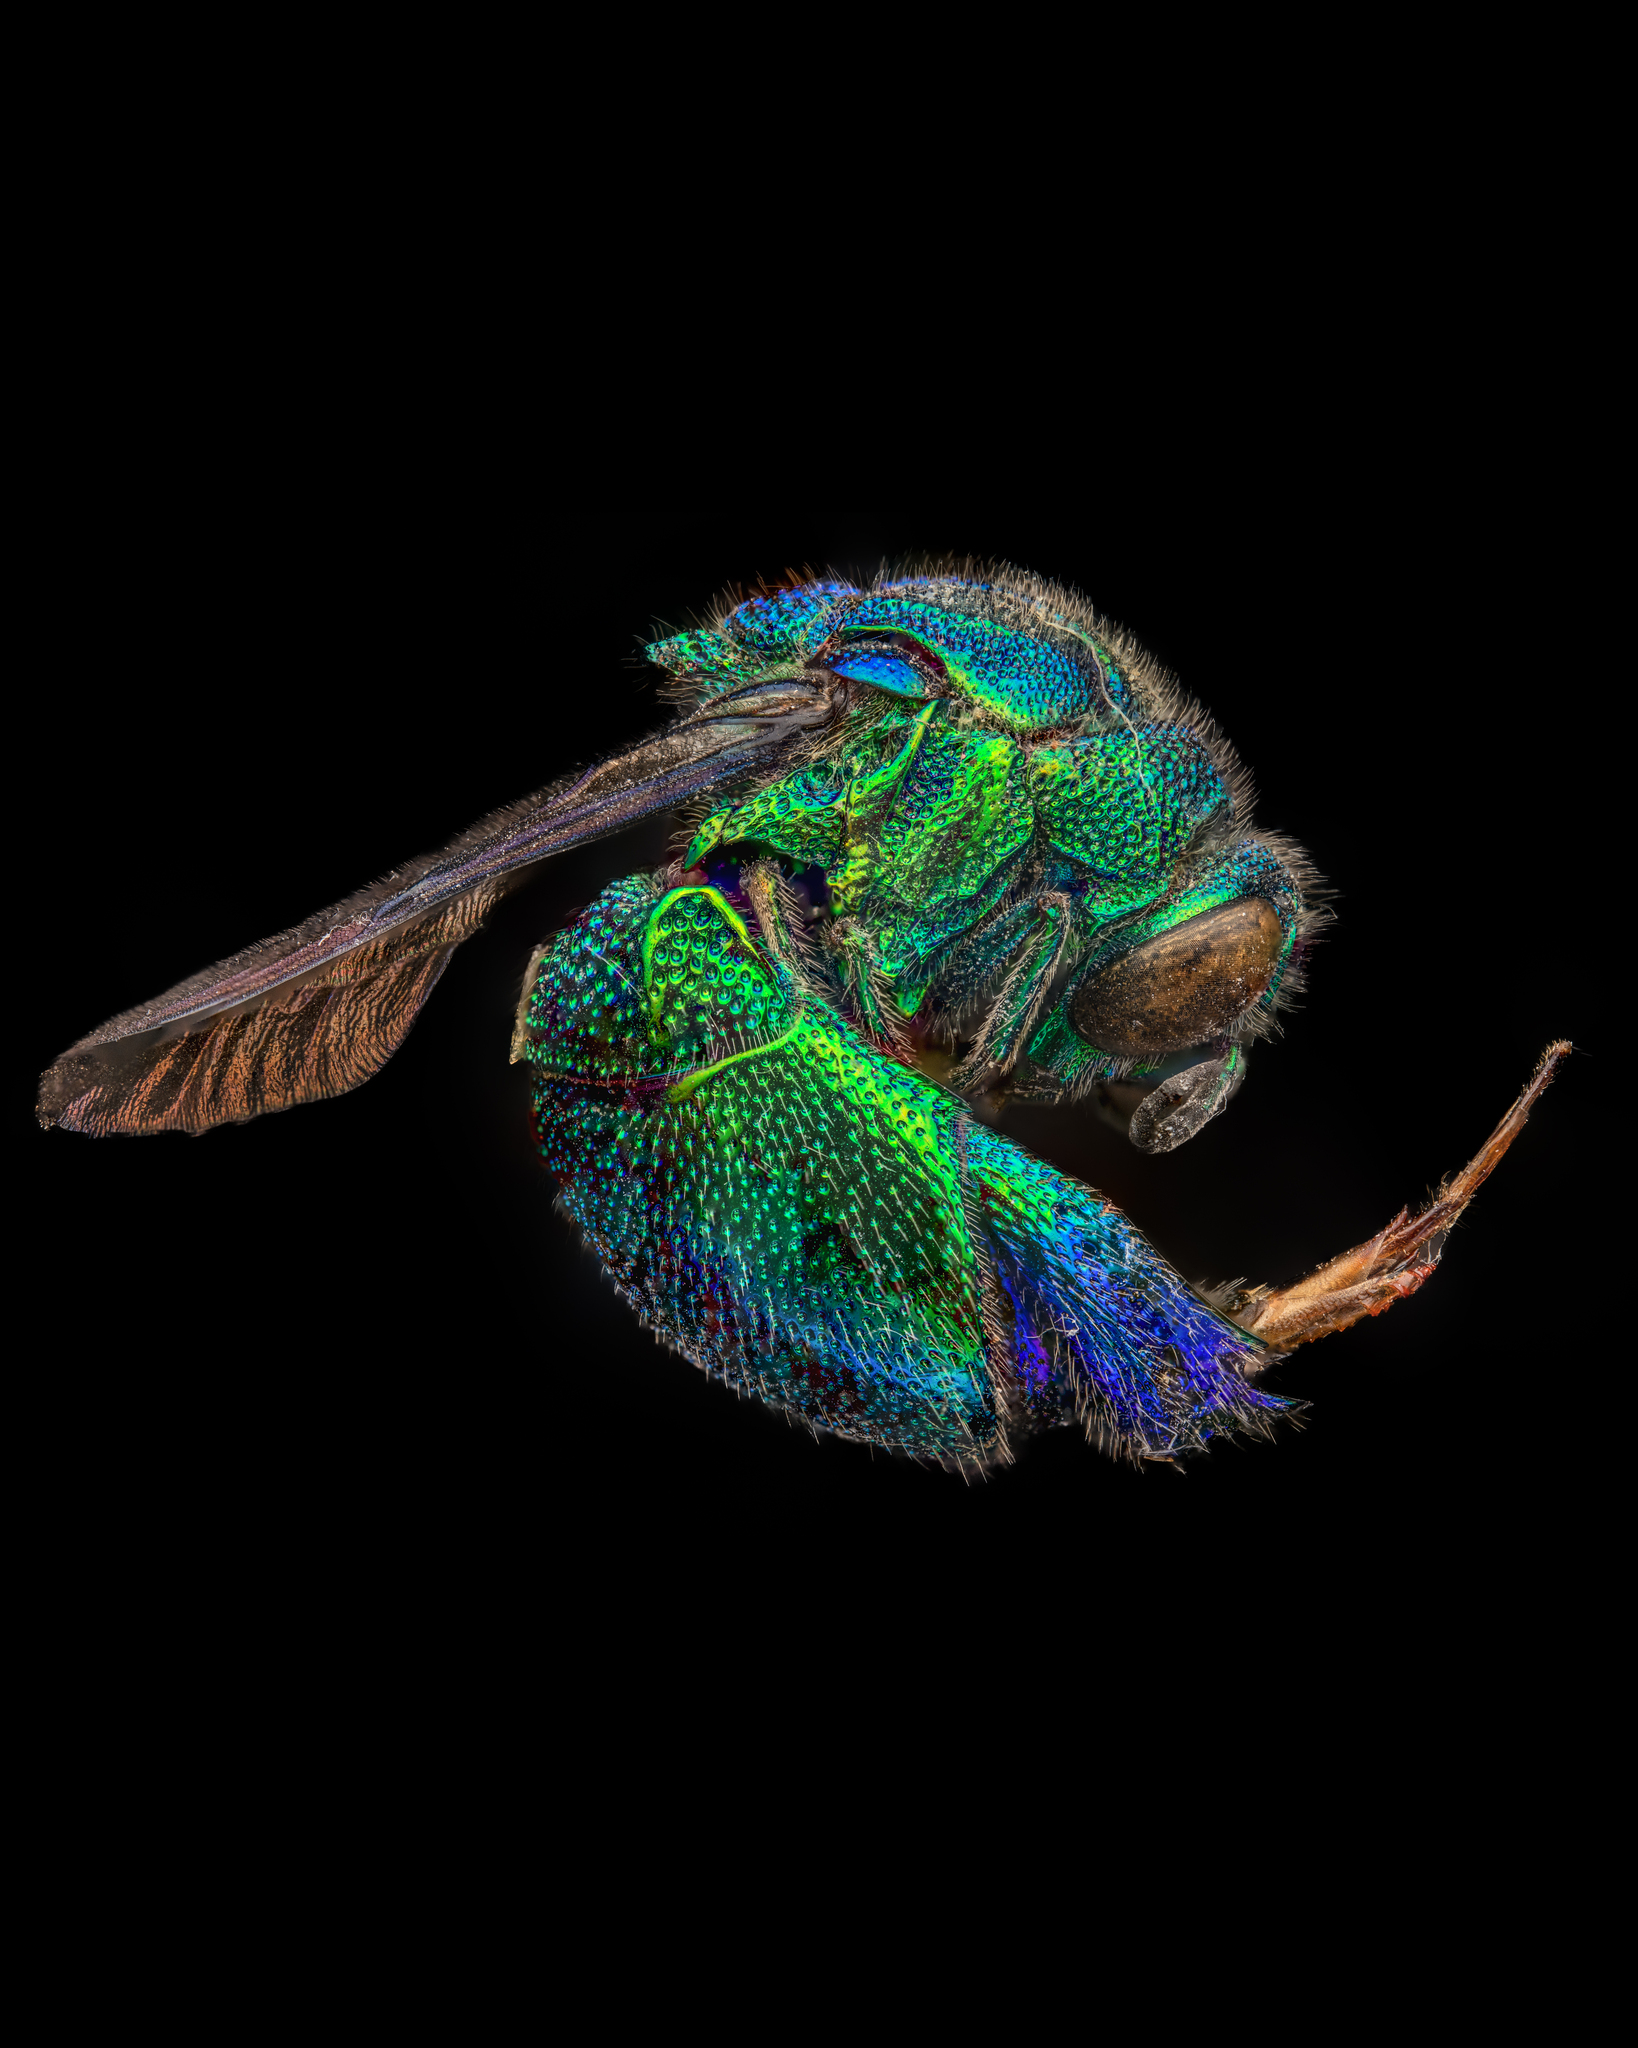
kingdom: Animalia
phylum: Arthropoda
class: Insecta
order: Hymenoptera
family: Chrysididae
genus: Stilbum
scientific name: Stilbum cyanurum
